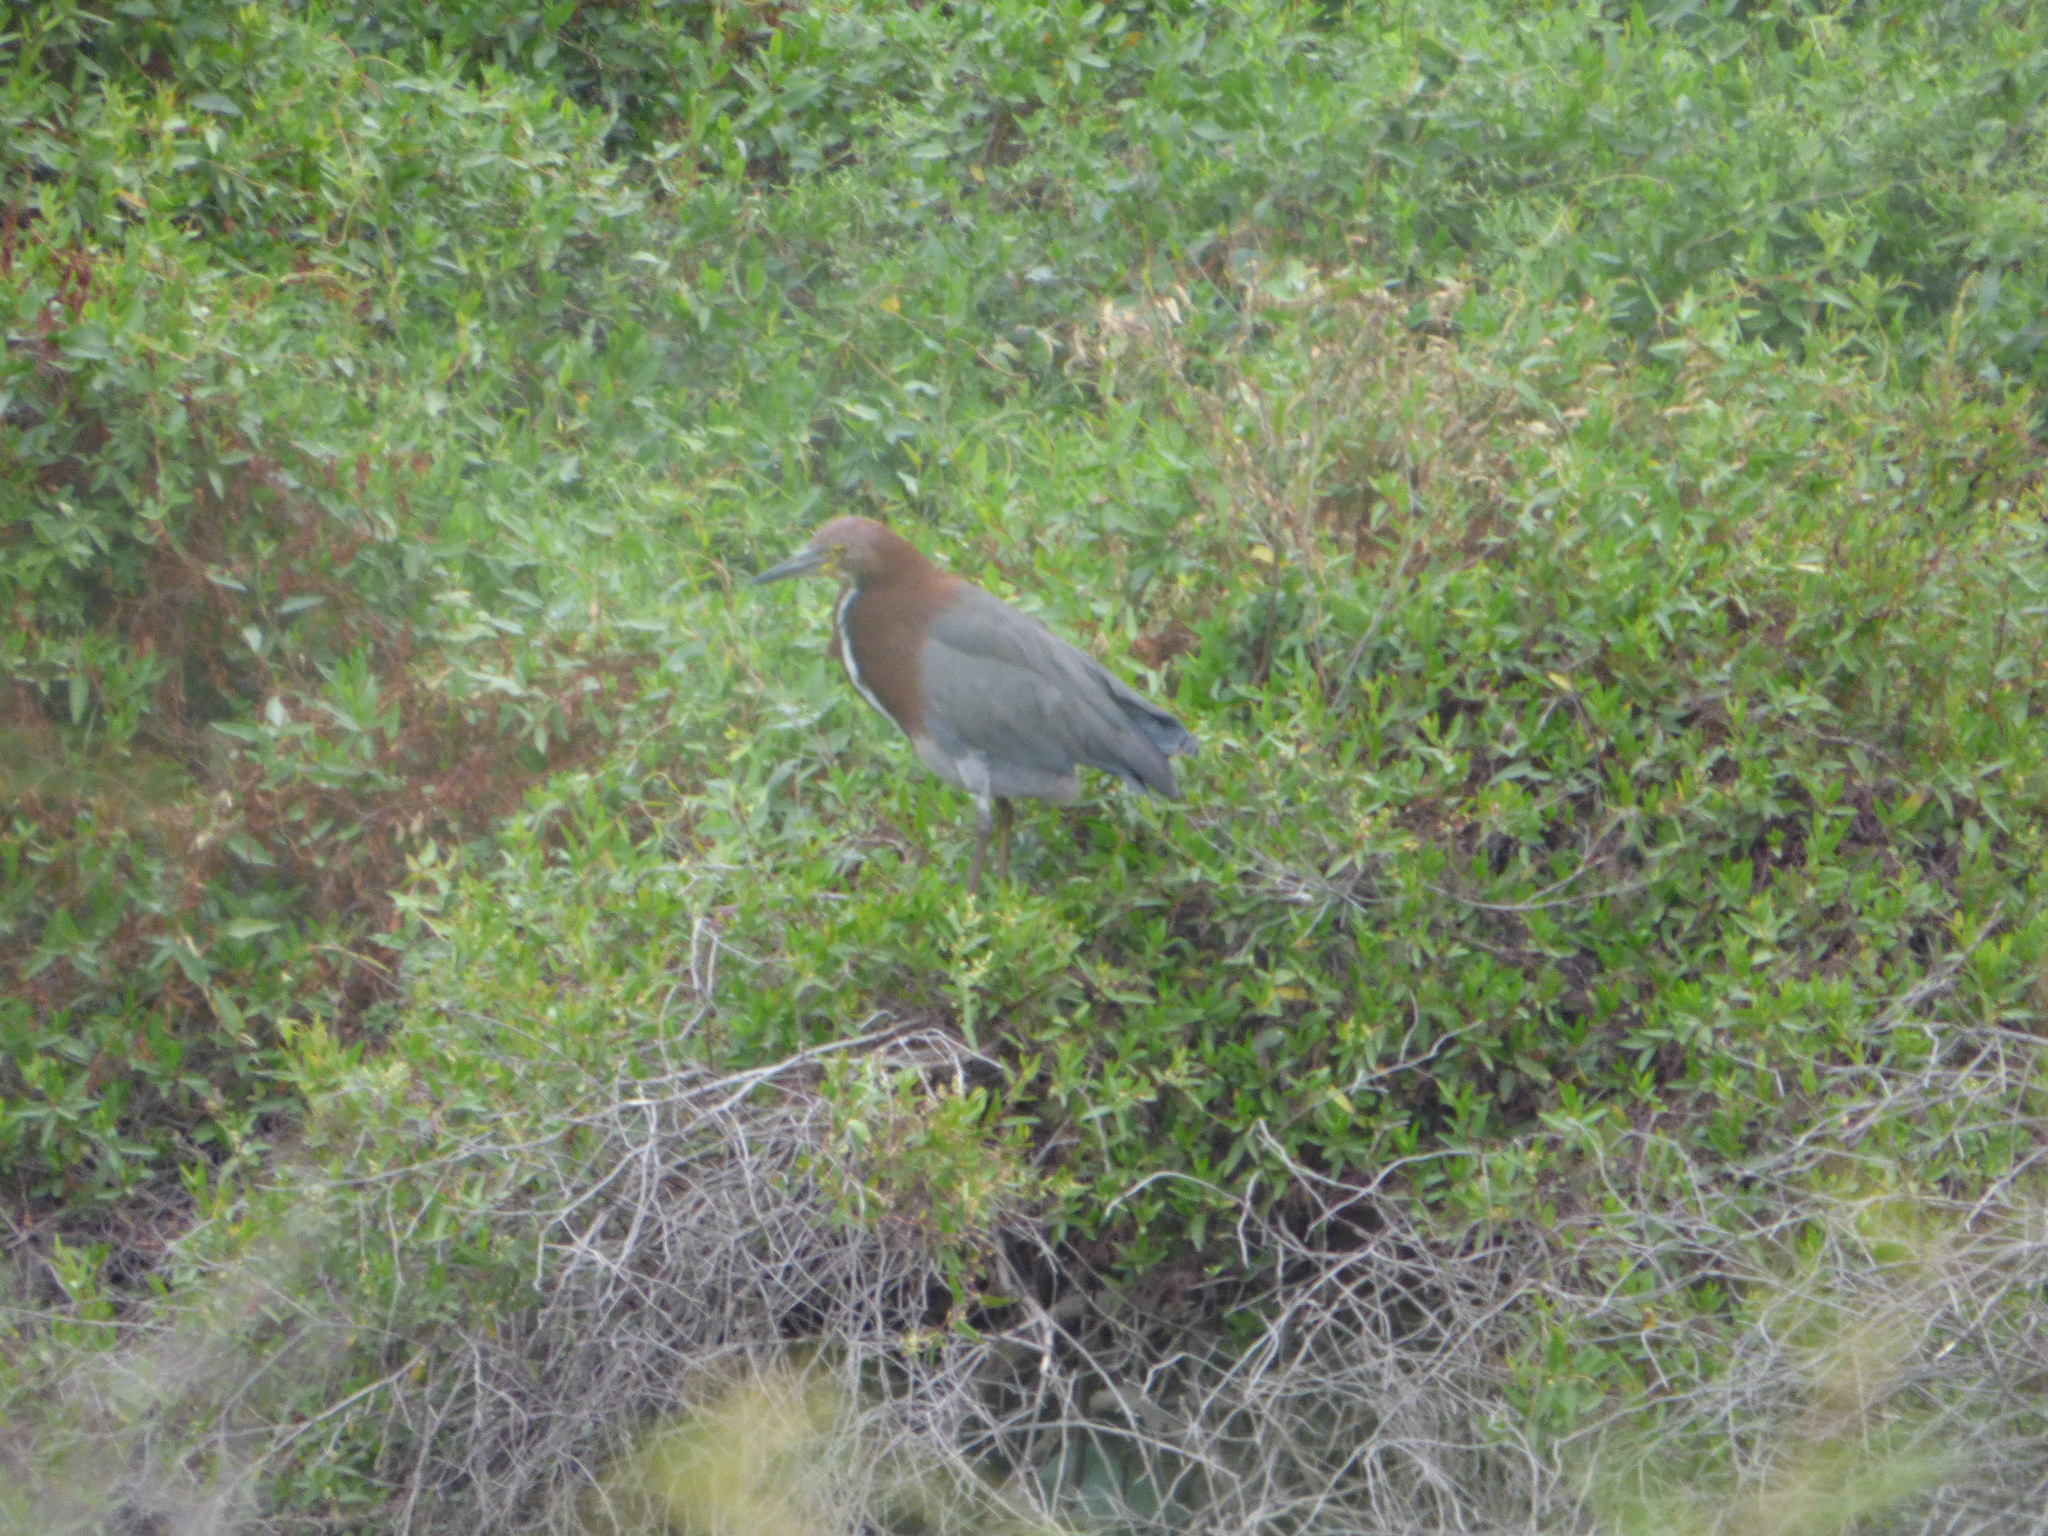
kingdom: Animalia
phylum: Chordata
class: Aves
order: Pelecaniformes
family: Ardeidae
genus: Tigrisoma
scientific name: Tigrisoma lineatum
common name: Rufescent tiger-heron
